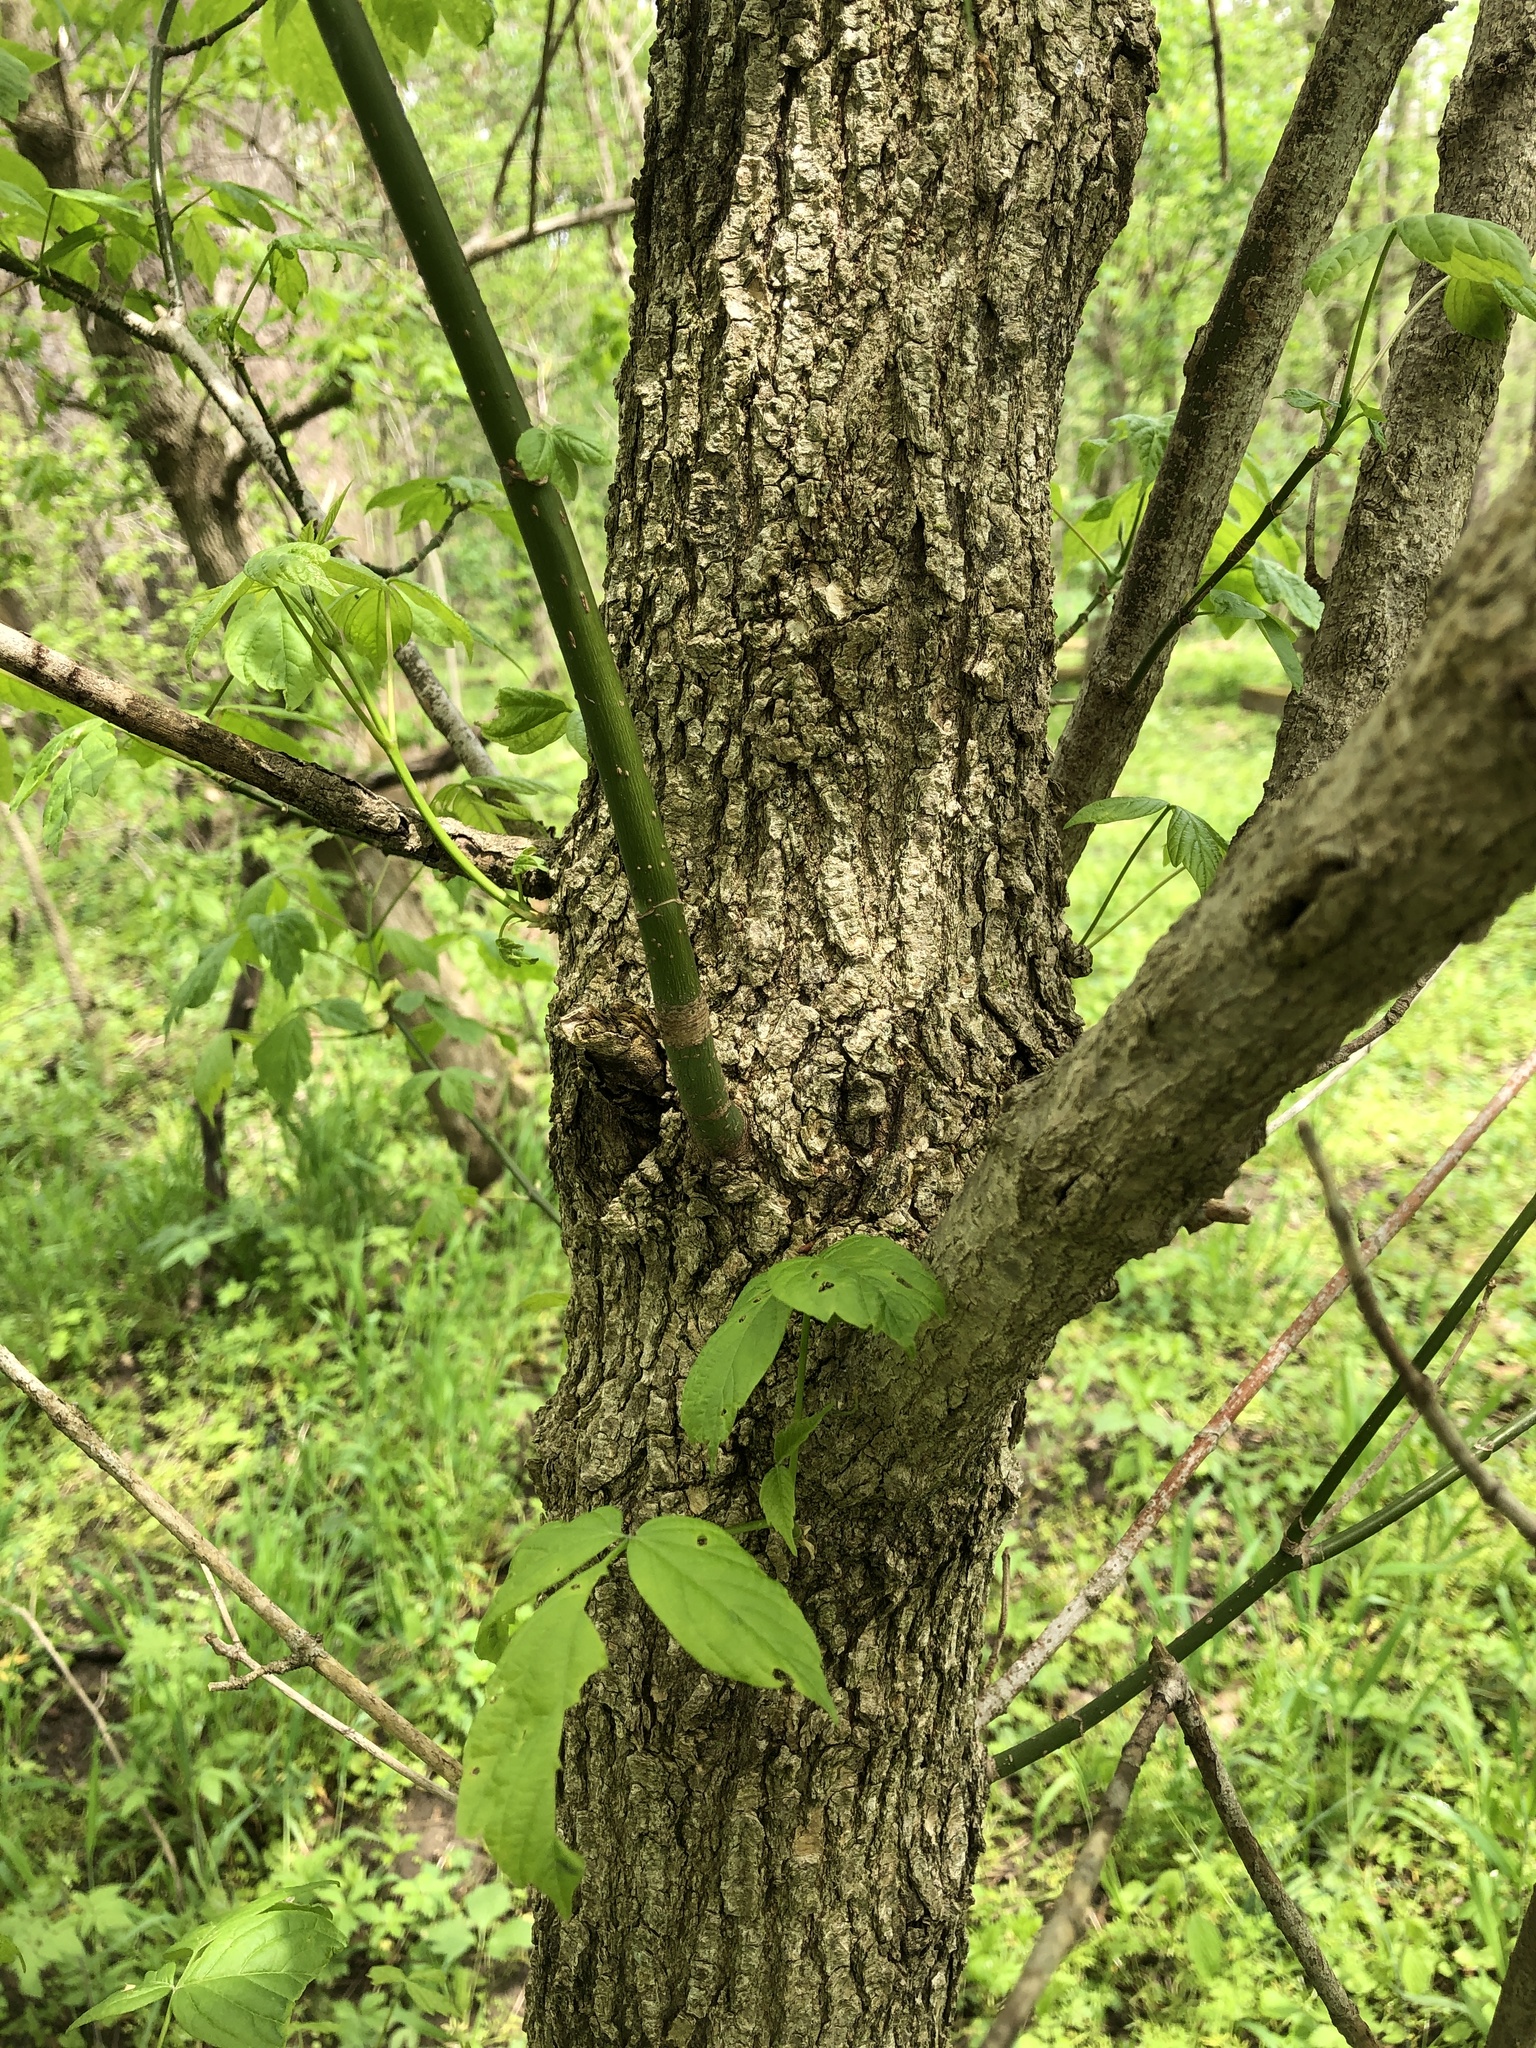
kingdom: Plantae
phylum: Tracheophyta
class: Magnoliopsida
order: Sapindales
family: Sapindaceae
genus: Acer
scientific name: Acer negundo
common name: Ashleaf maple
